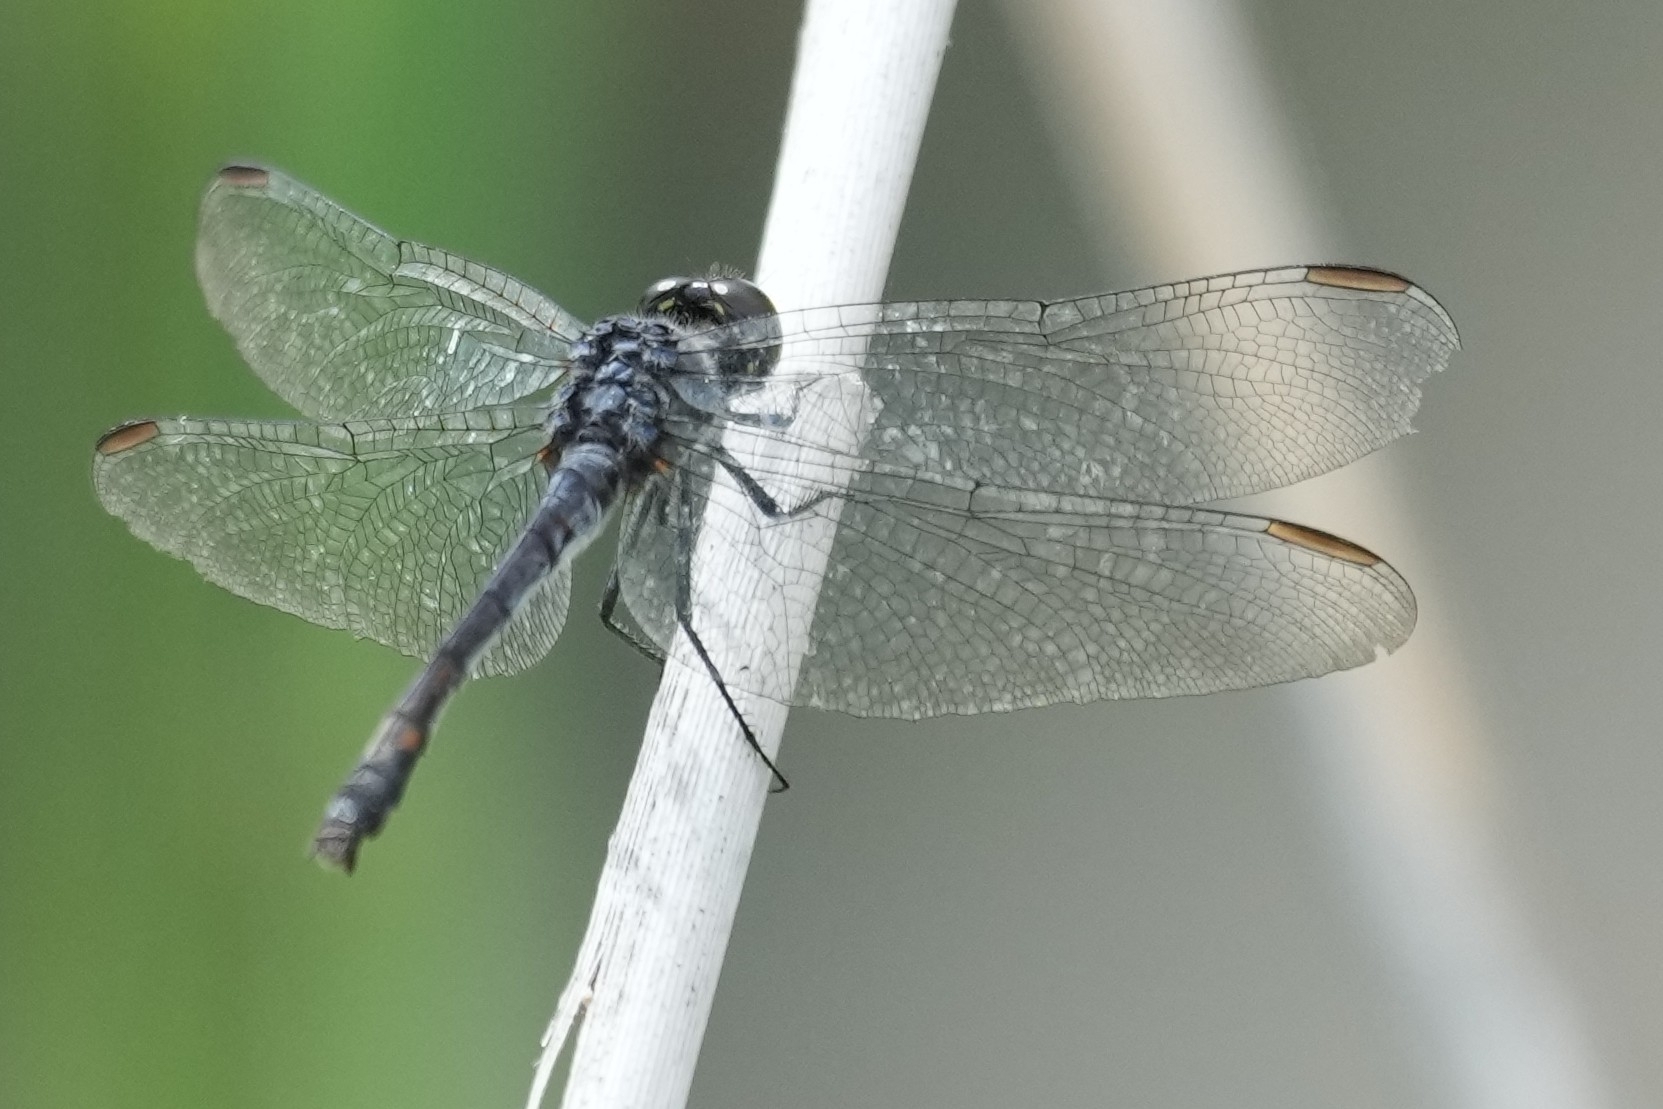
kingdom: Animalia
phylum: Arthropoda
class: Insecta
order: Odonata
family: Libellulidae
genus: Erythrodiplax
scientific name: Erythrodiplax berenice
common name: Seaside dragonlet
